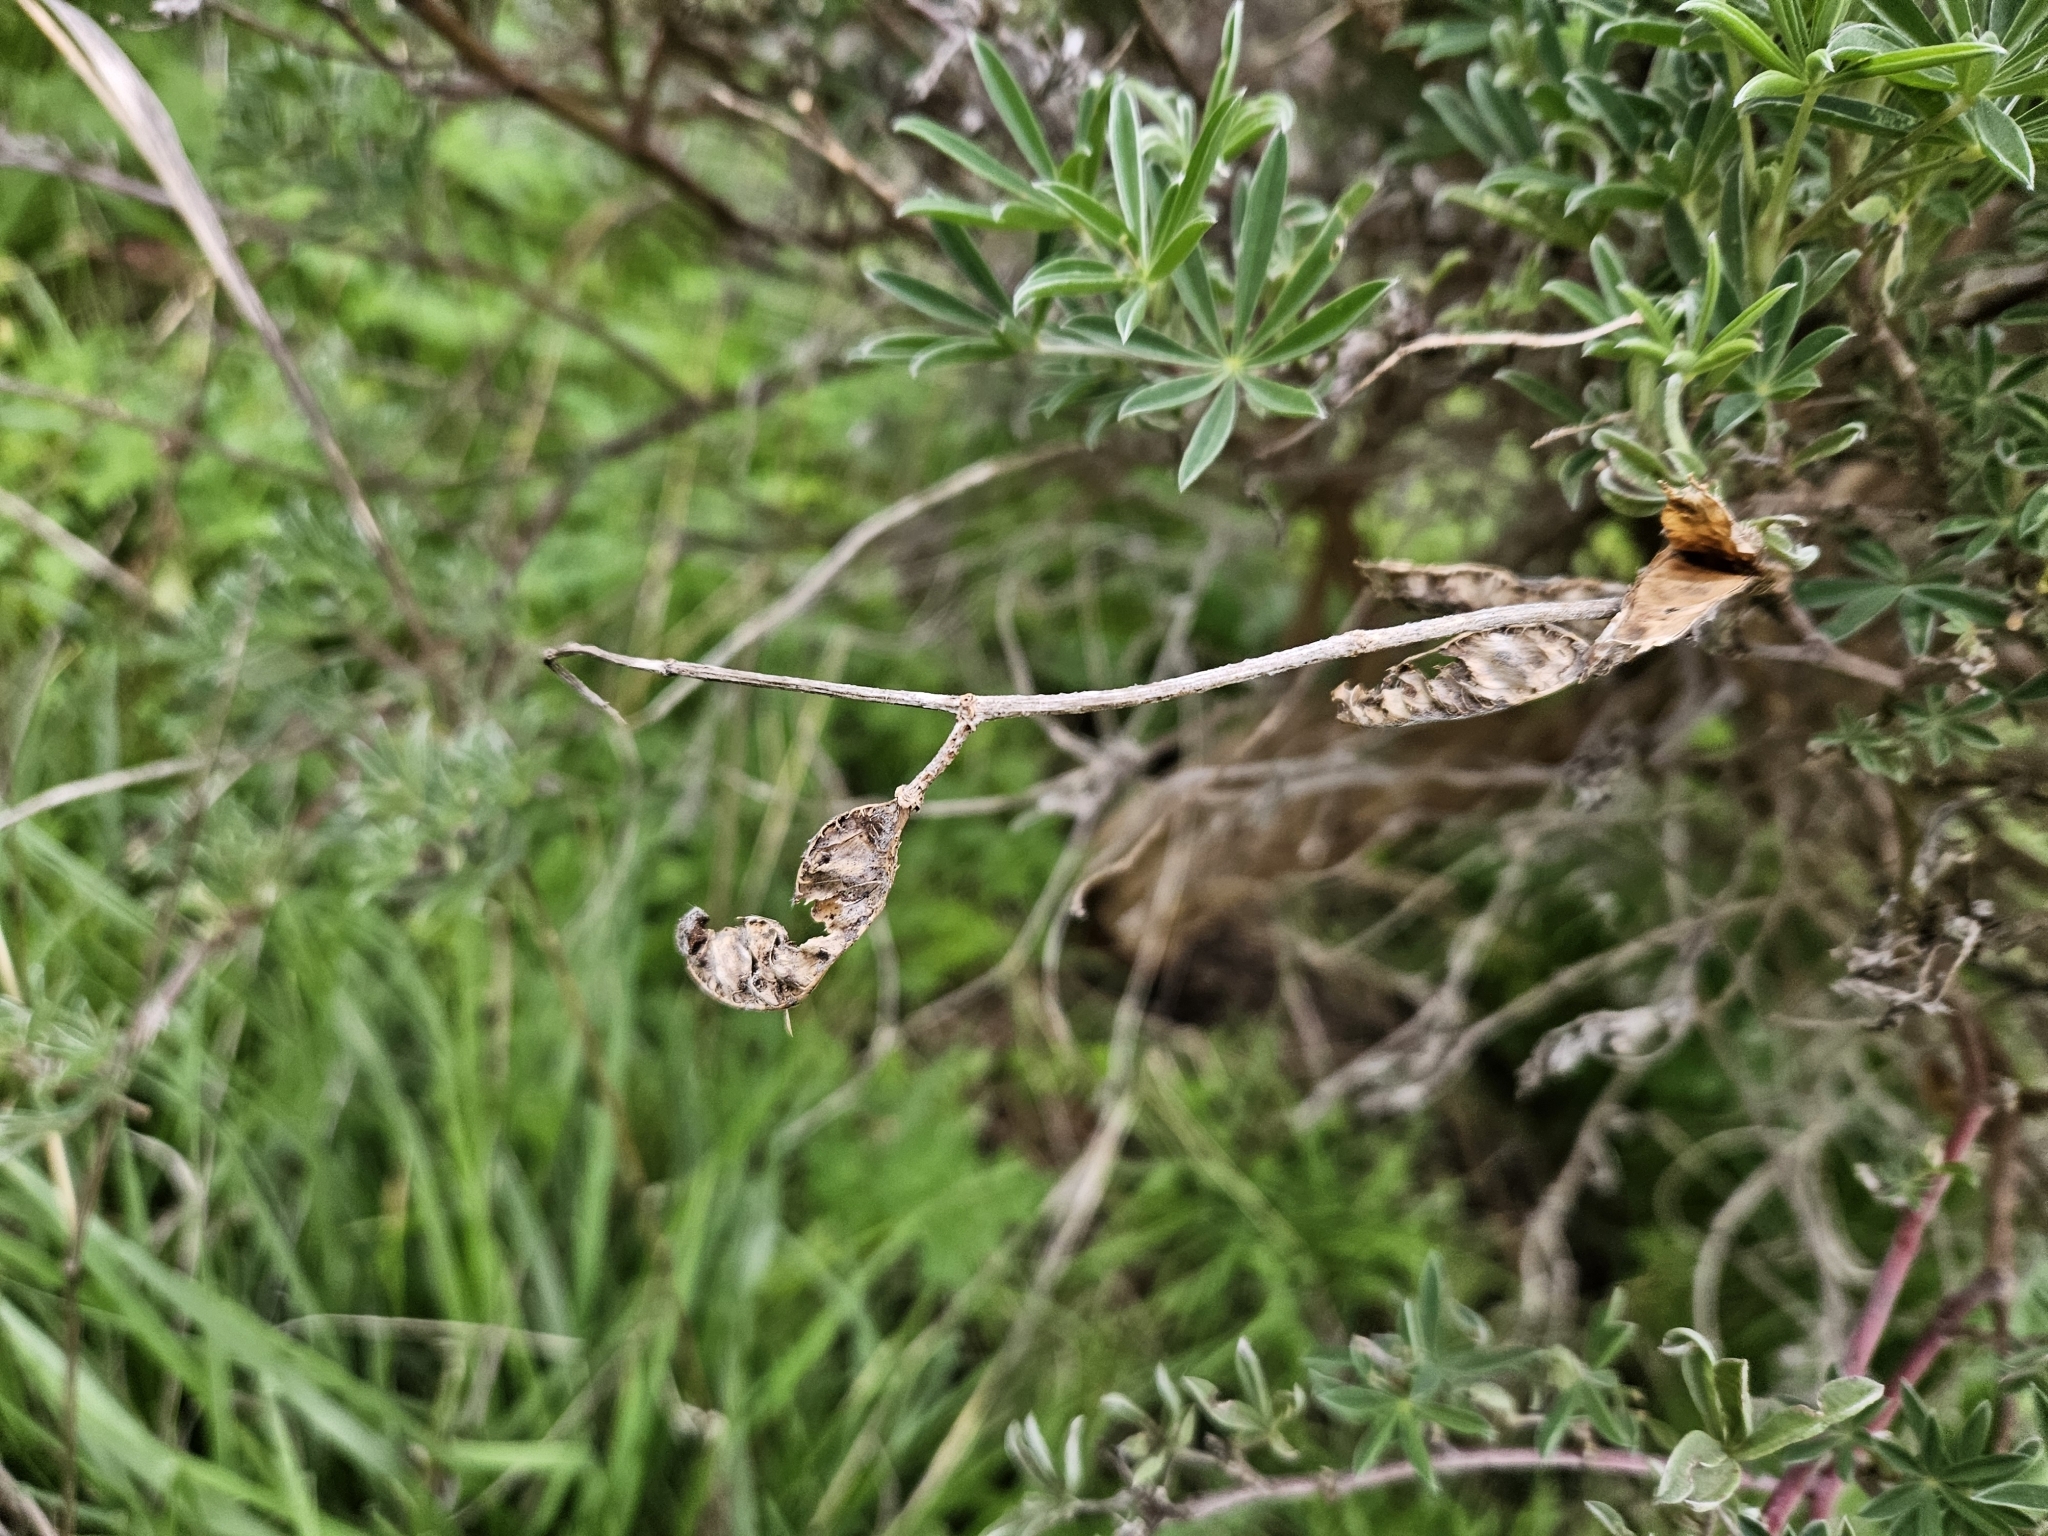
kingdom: Plantae
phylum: Tracheophyta
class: Magnoliopsida
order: Fabales
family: Fabaceae
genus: Lupinus
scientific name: Lupinus arboreus
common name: Yellow bush lupine
